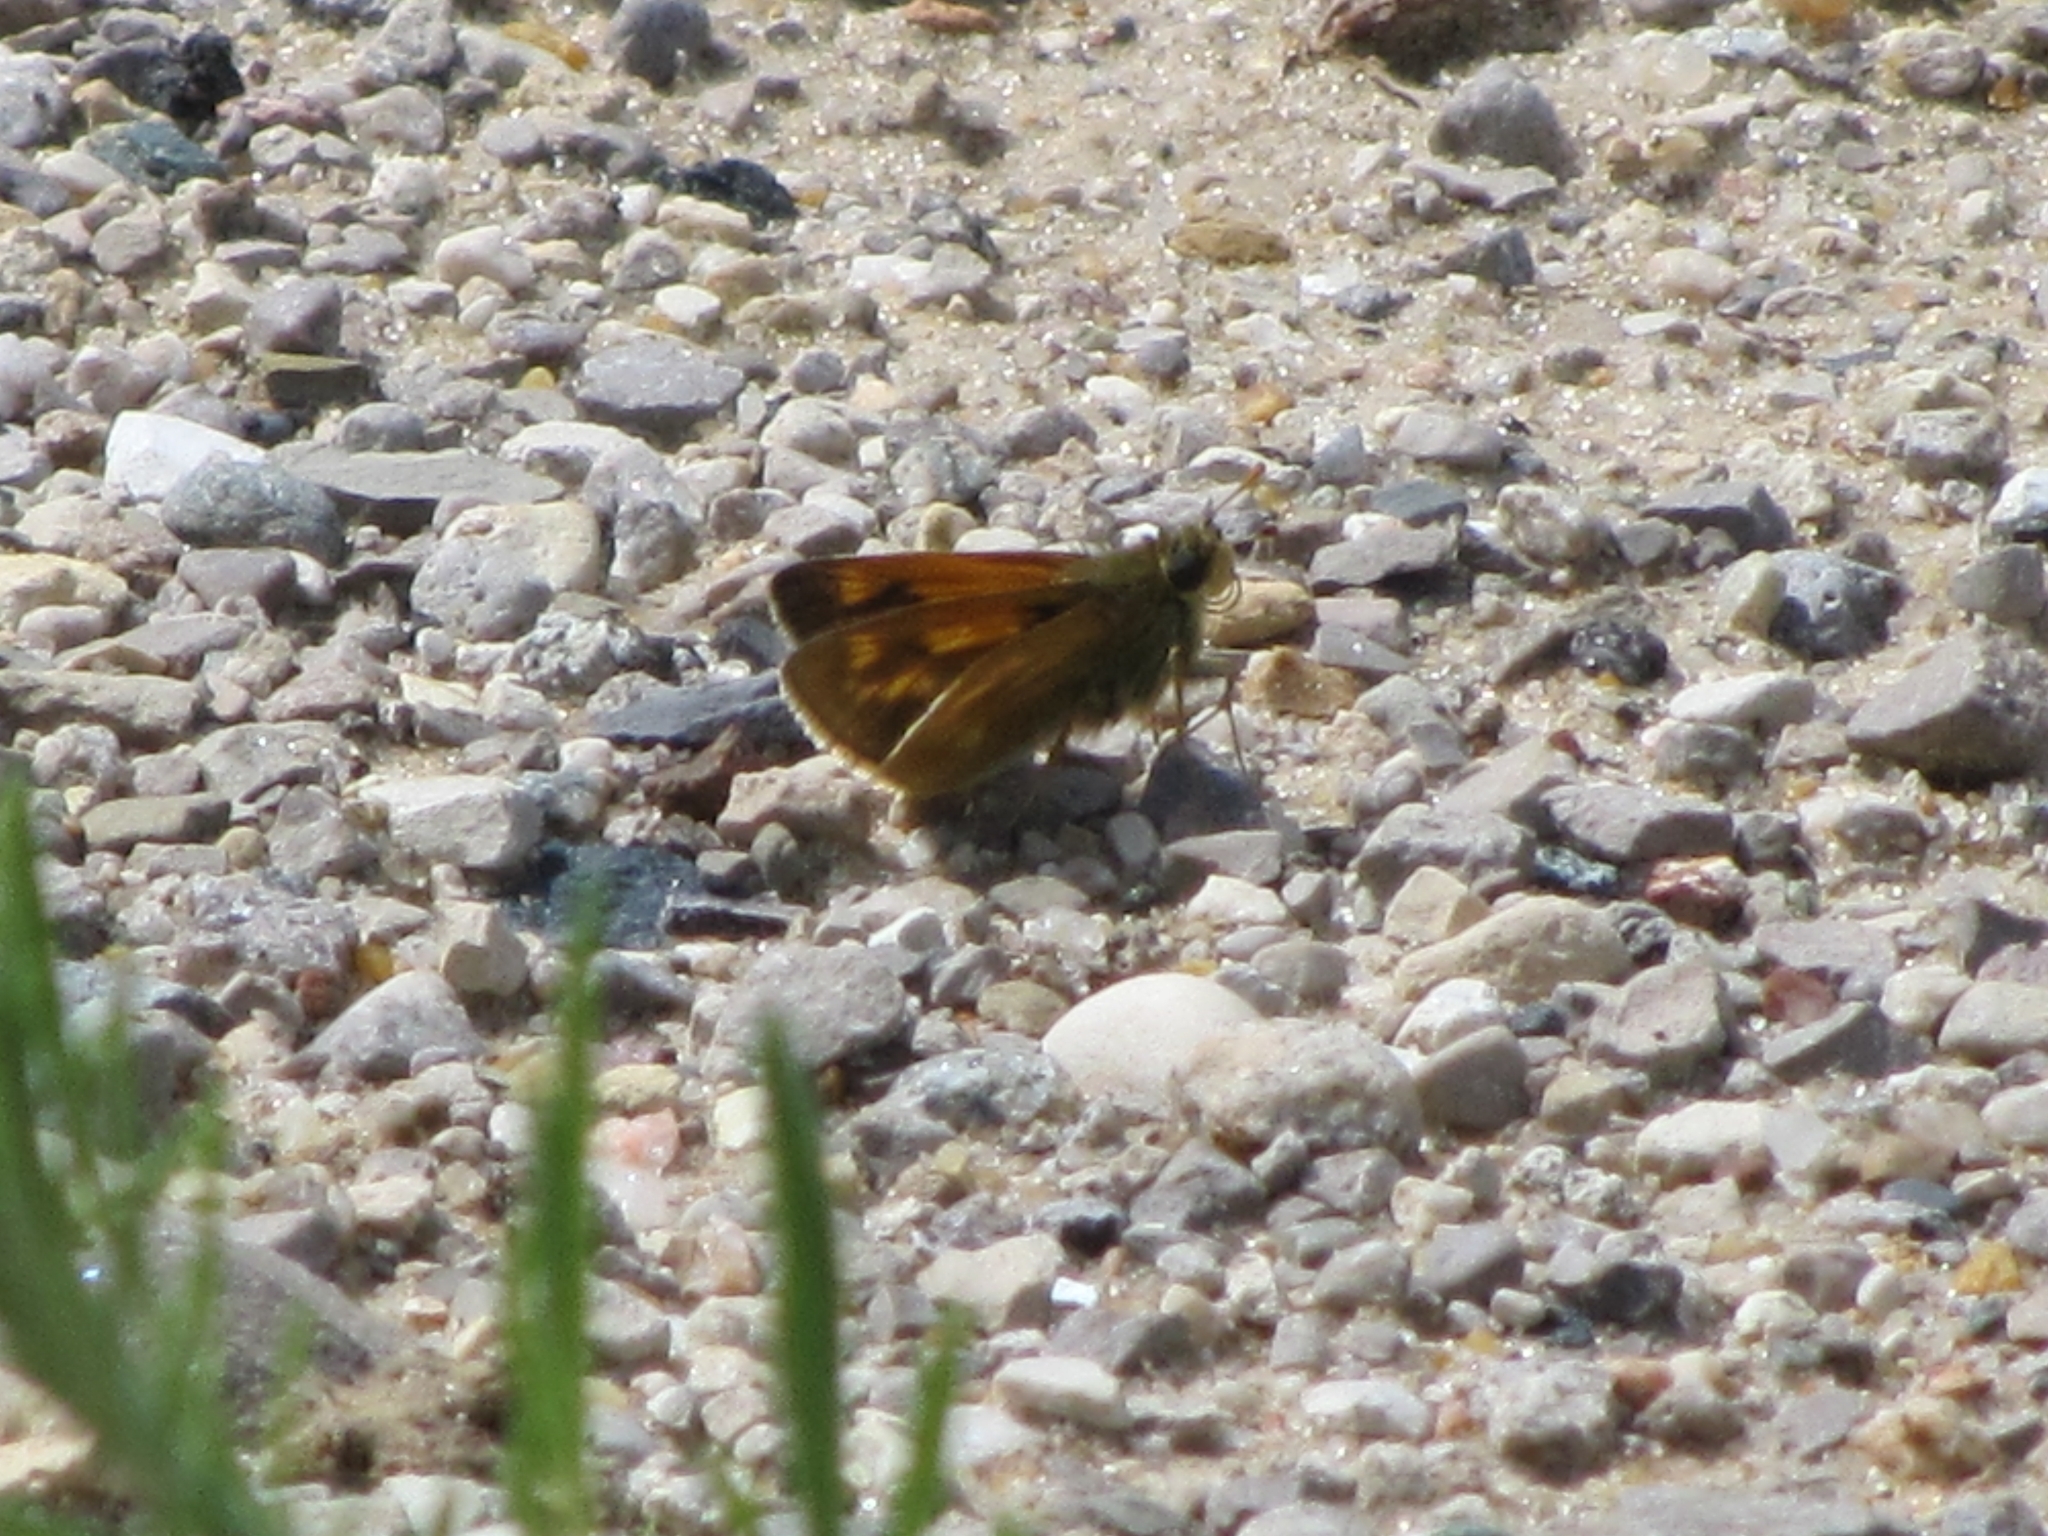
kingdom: Animalia
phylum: Arthropoda
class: Insecta
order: Lepidoptera
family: Hesperiidae
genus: Polites
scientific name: Polites mystic
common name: Long dash
